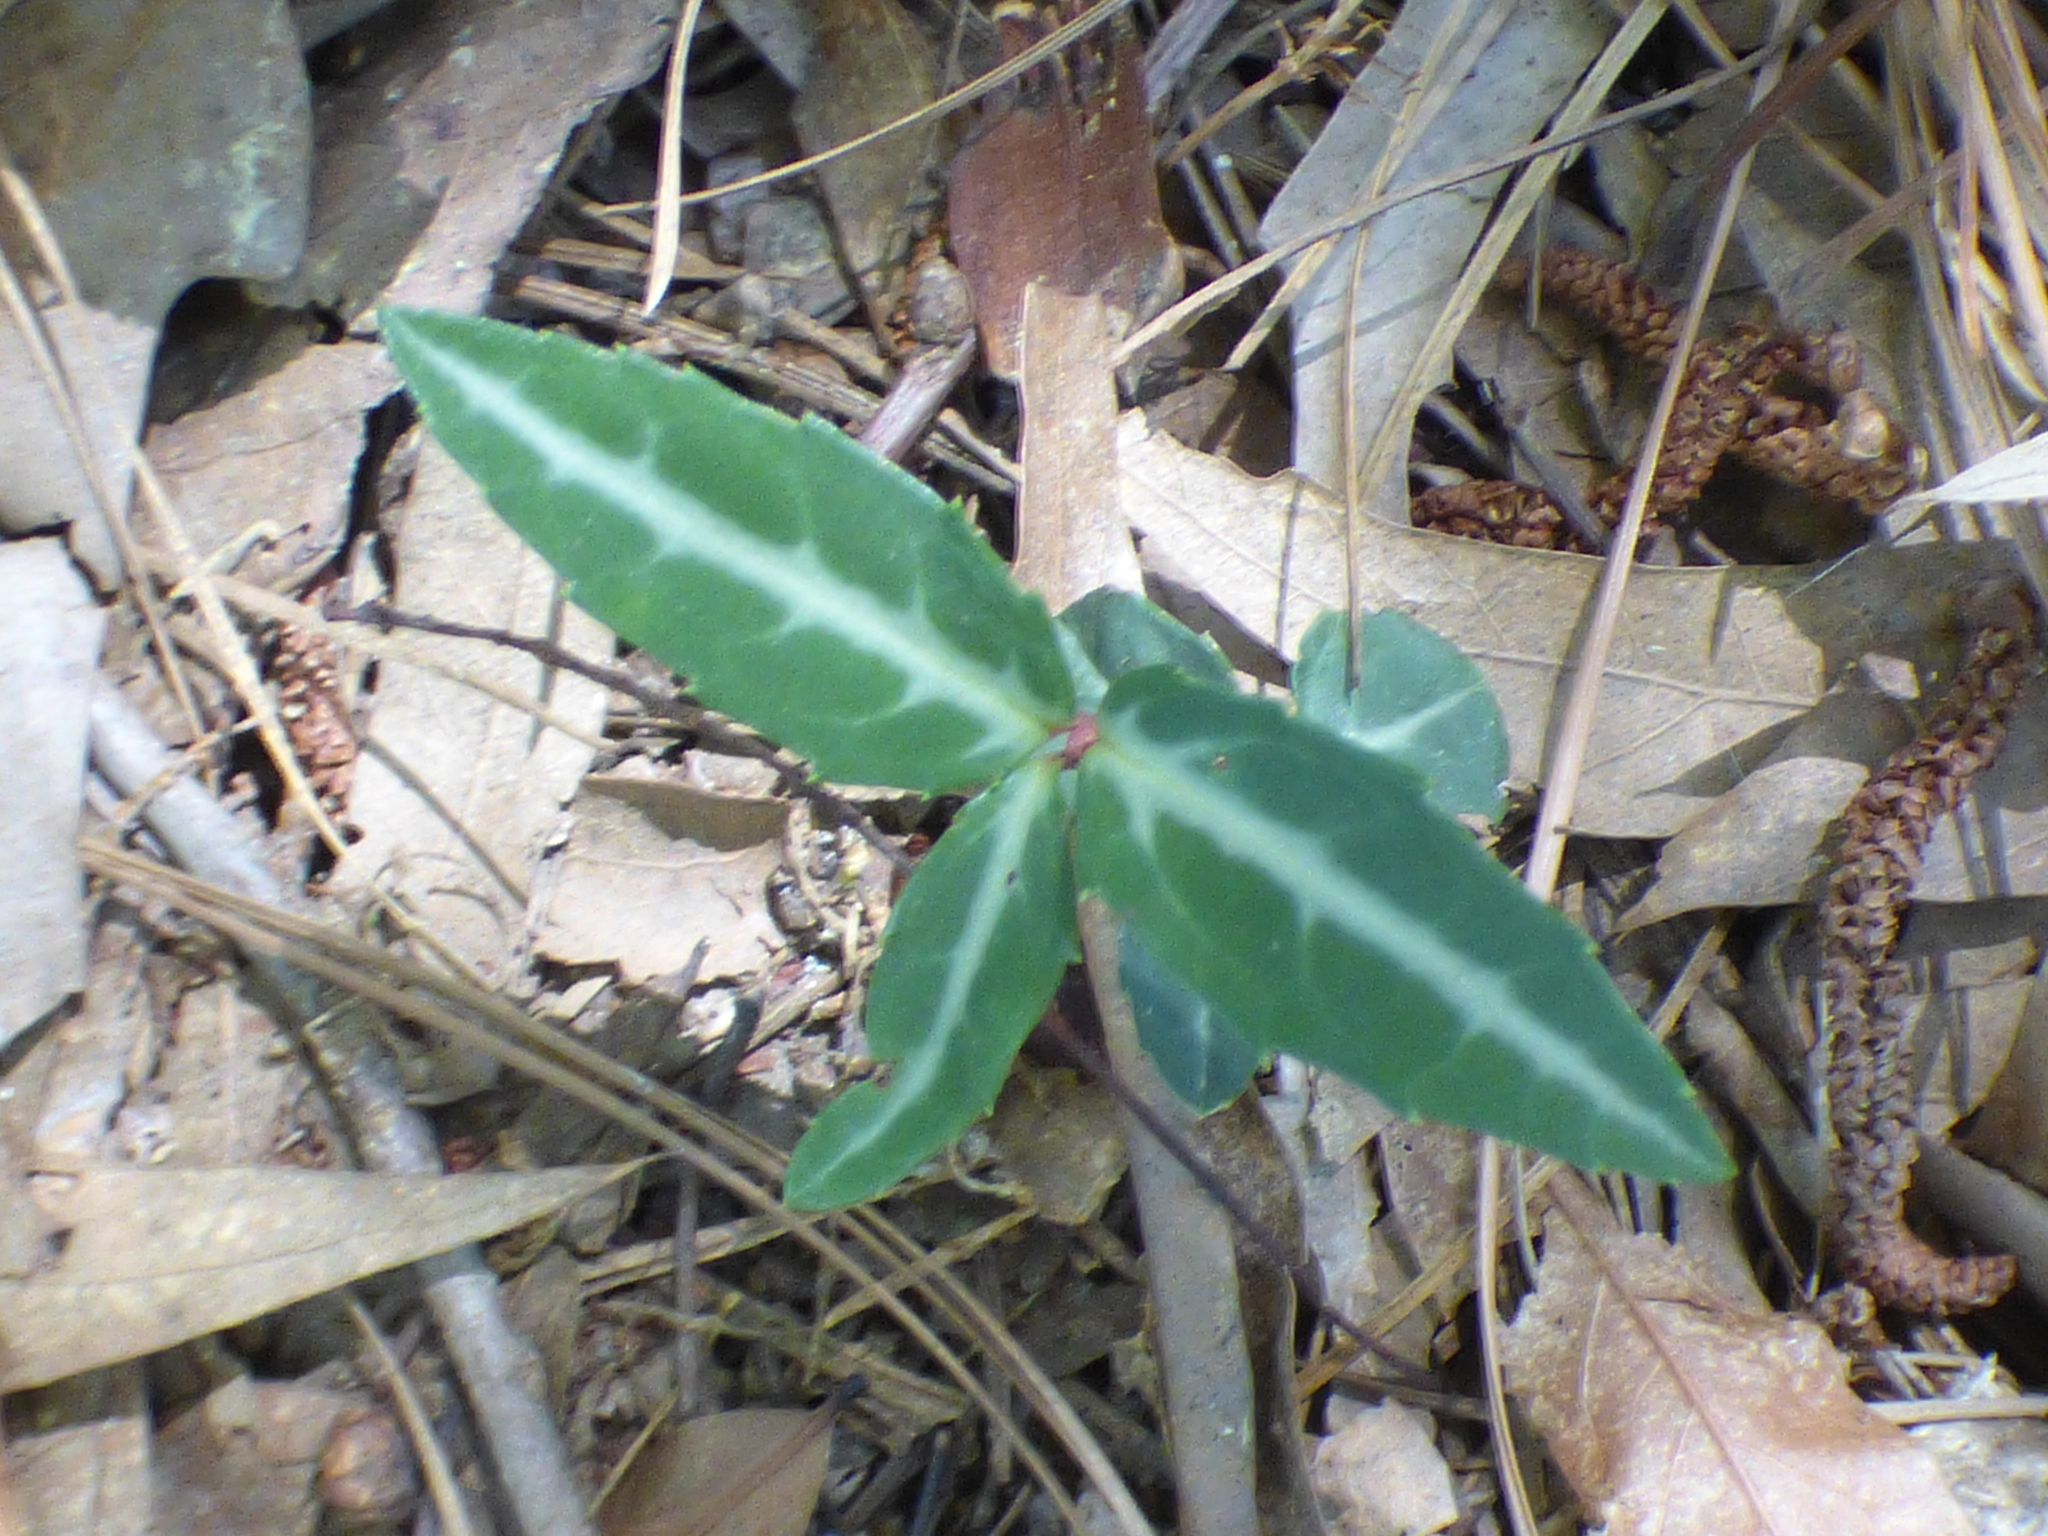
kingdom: Plantae
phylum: Tracheophyta
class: Magnoliopsida
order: Ericales
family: Ericaceae
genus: Chimaphila
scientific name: Chimaphila maculata
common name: Spotted pipsissewa
